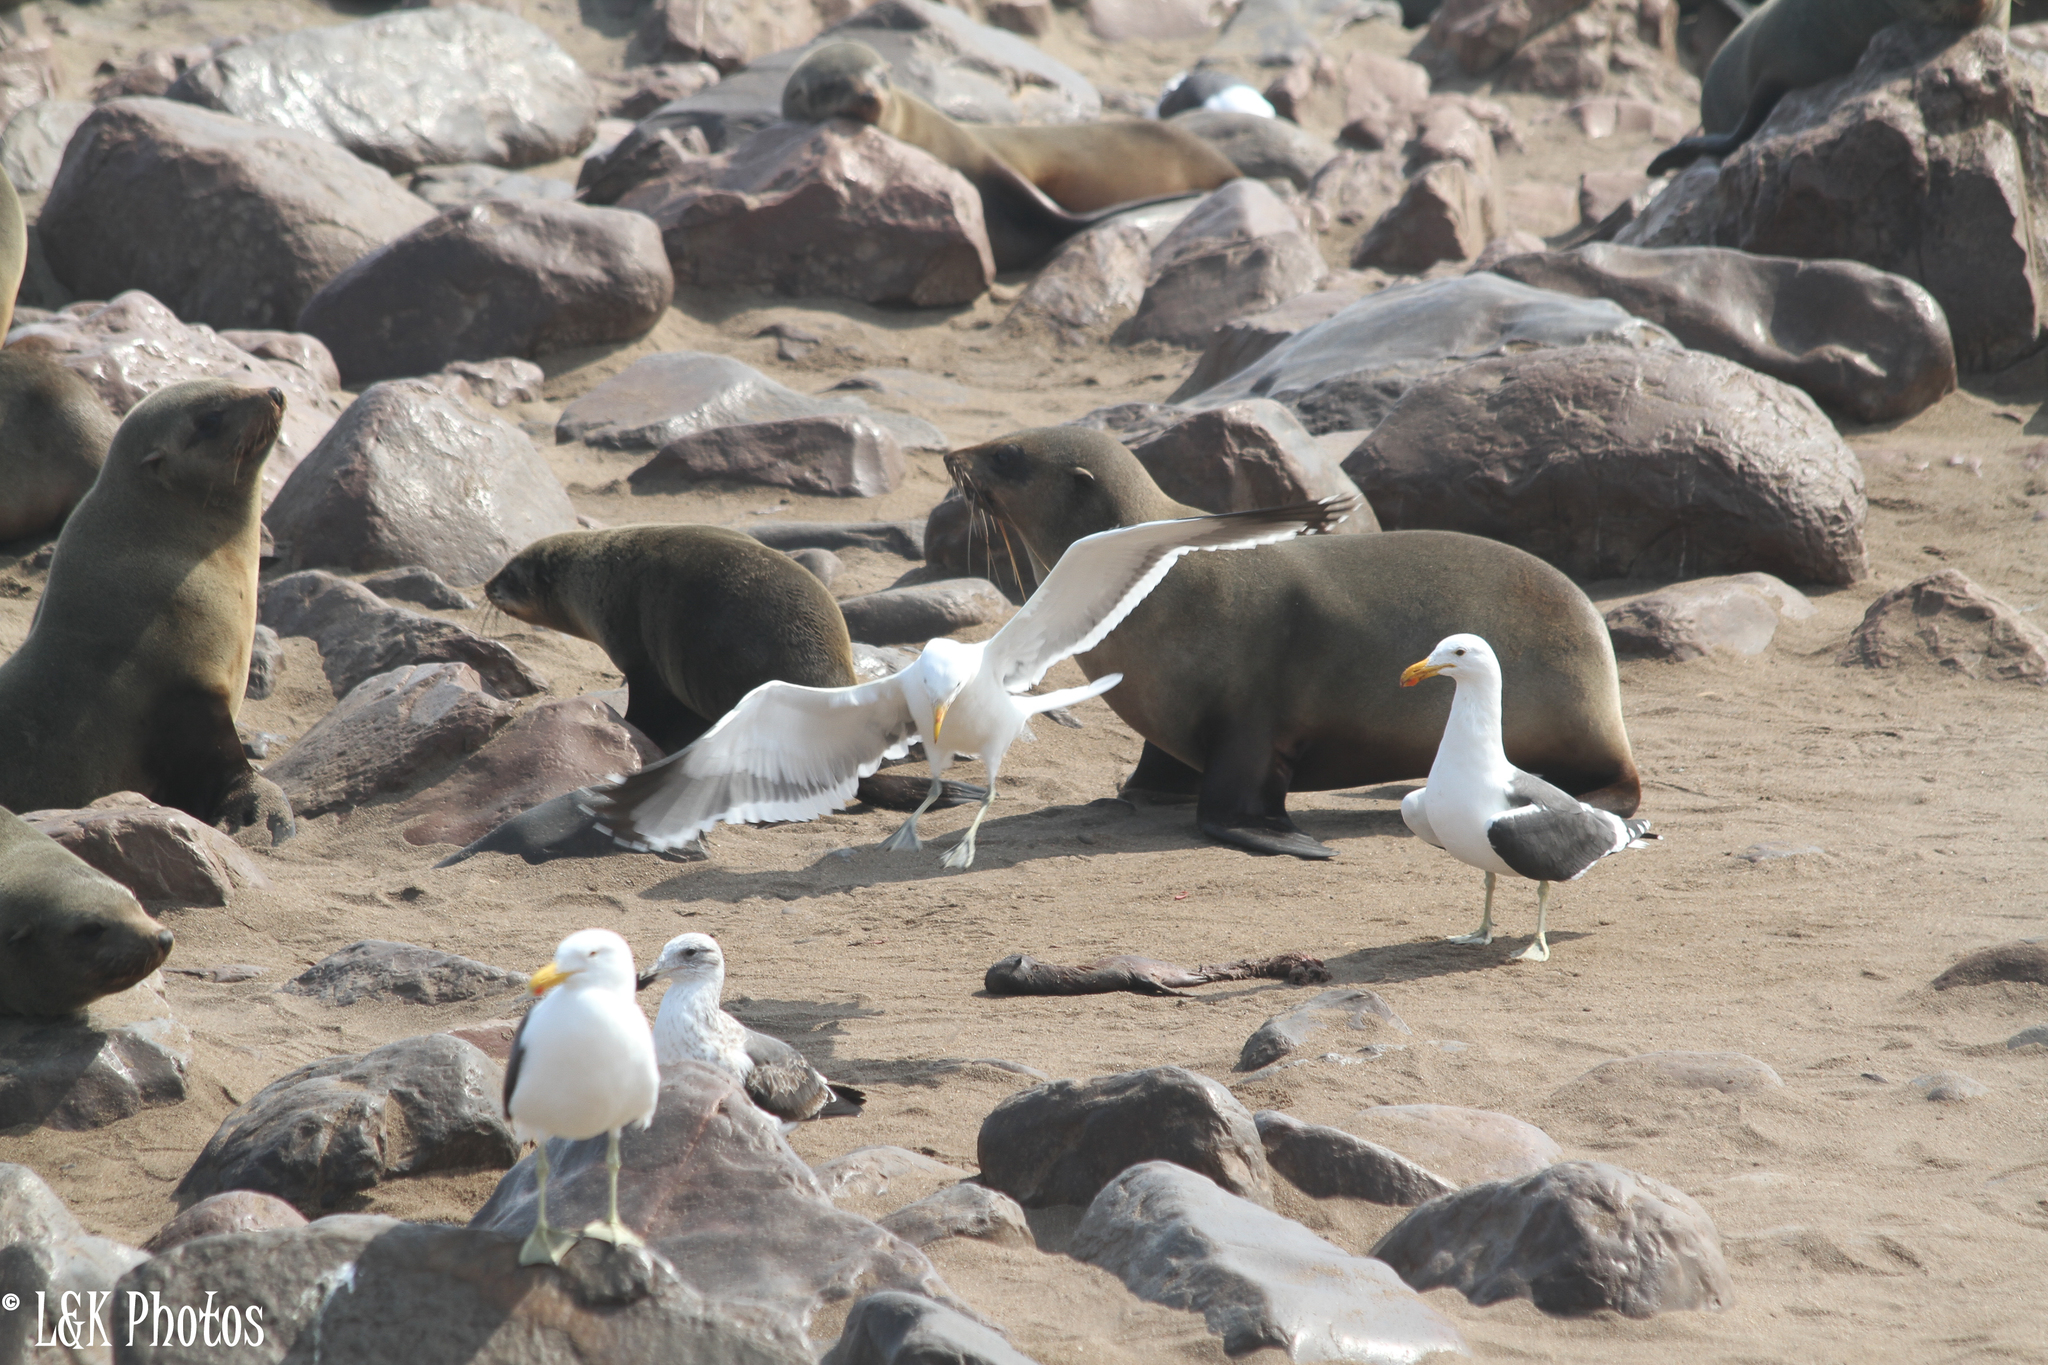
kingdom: Animalia
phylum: Chordata
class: Aves
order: Charadriiformes
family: Laridae
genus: Larus
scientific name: Larus dominicanus
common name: Kelp gull
